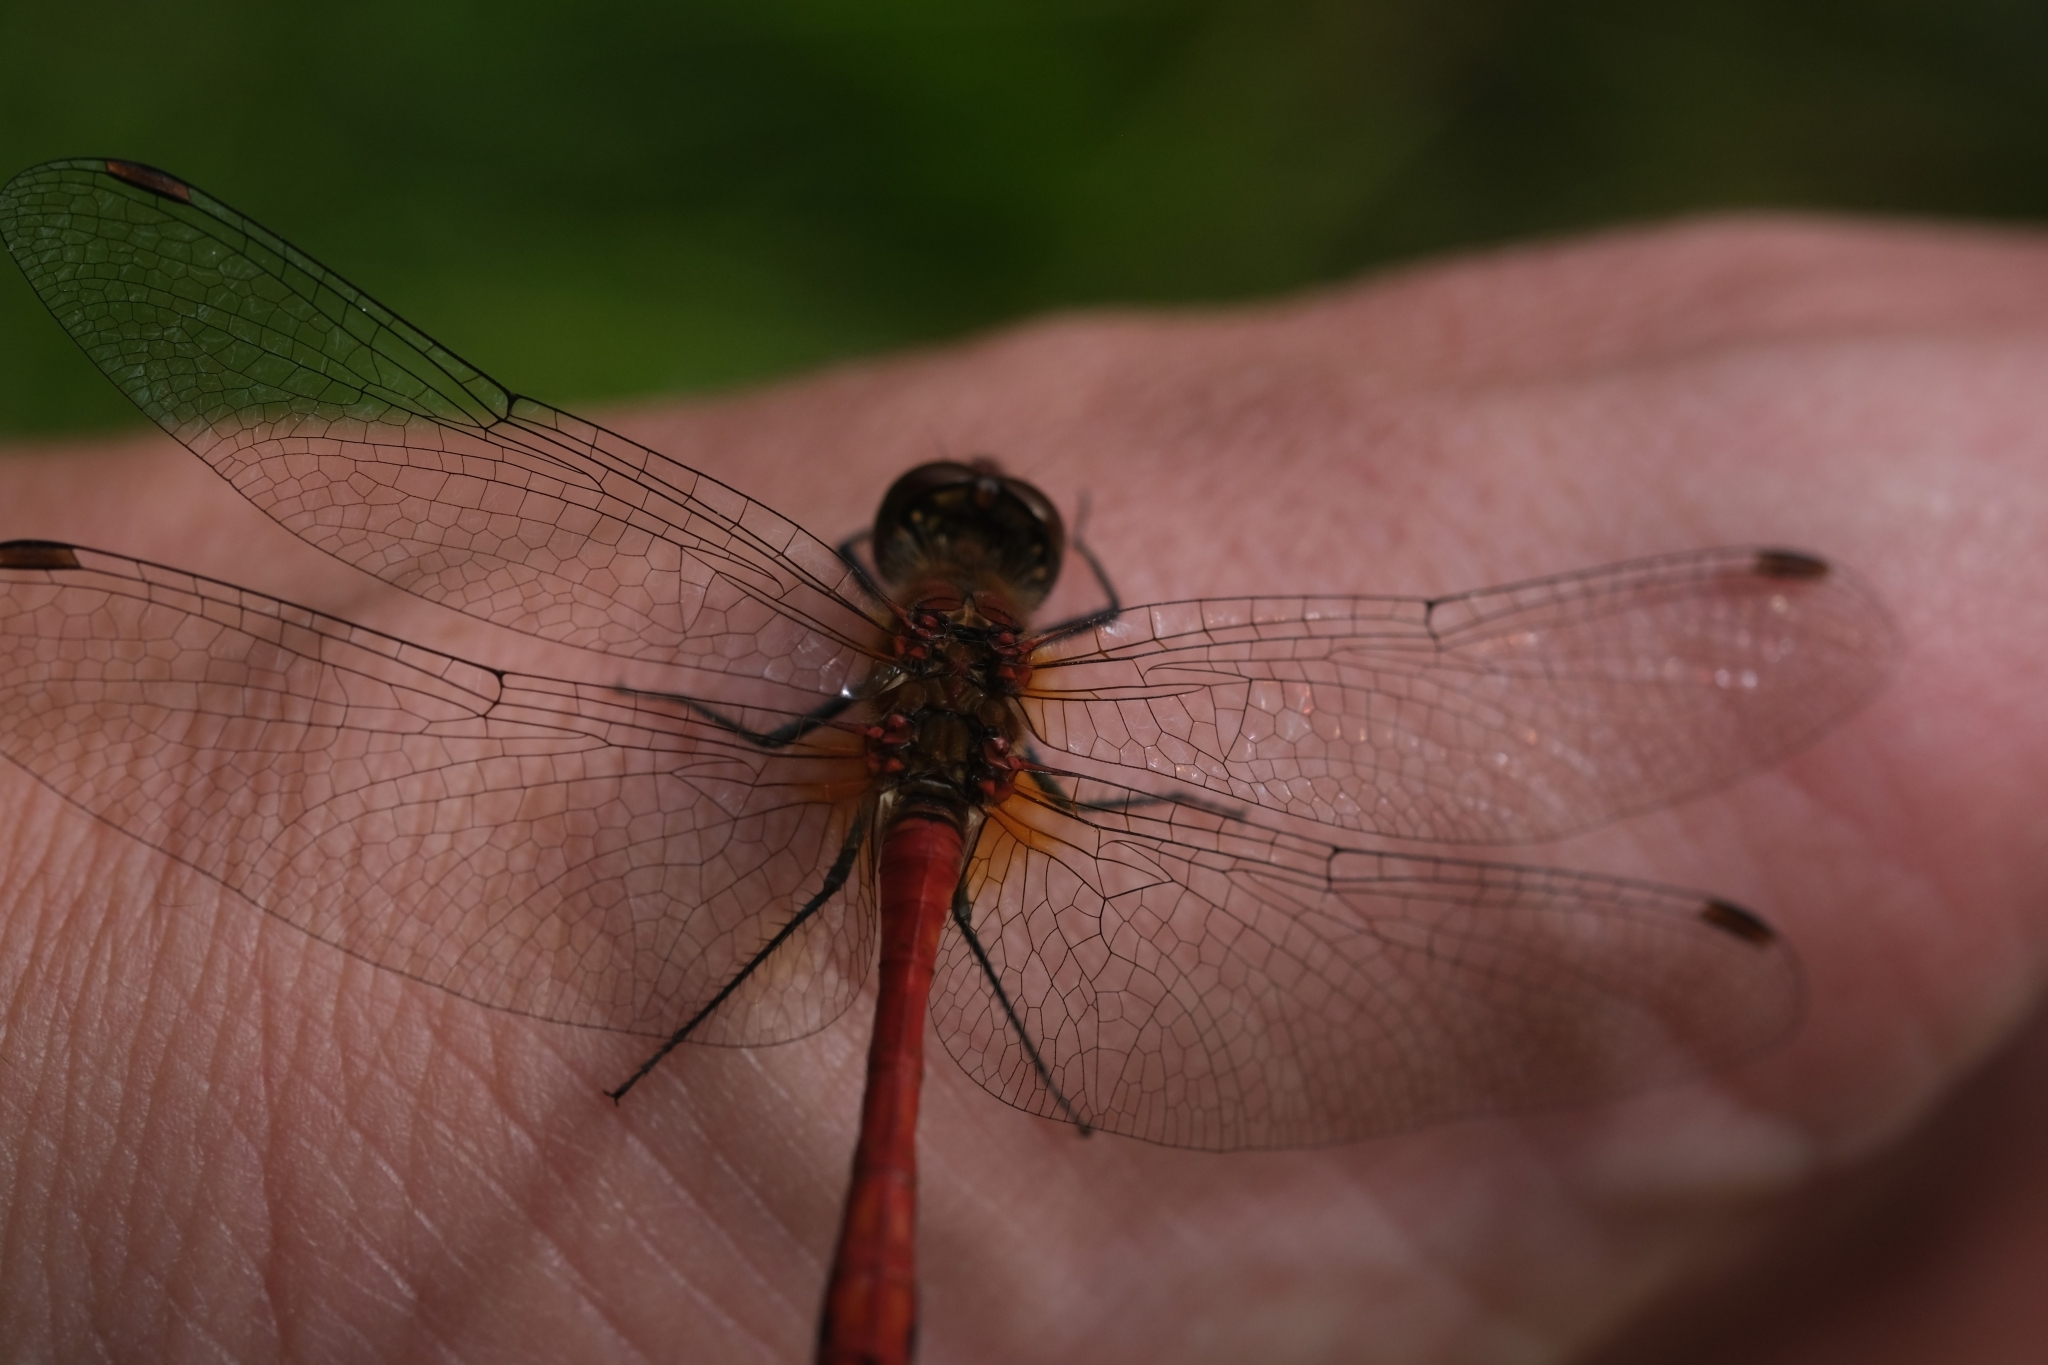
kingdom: Animalia
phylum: Arthropoda
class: Insecta
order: Odonata
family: Libellulidae
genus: Sympetrum
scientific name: Sympetrum sanguineum
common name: Ruddy darter
